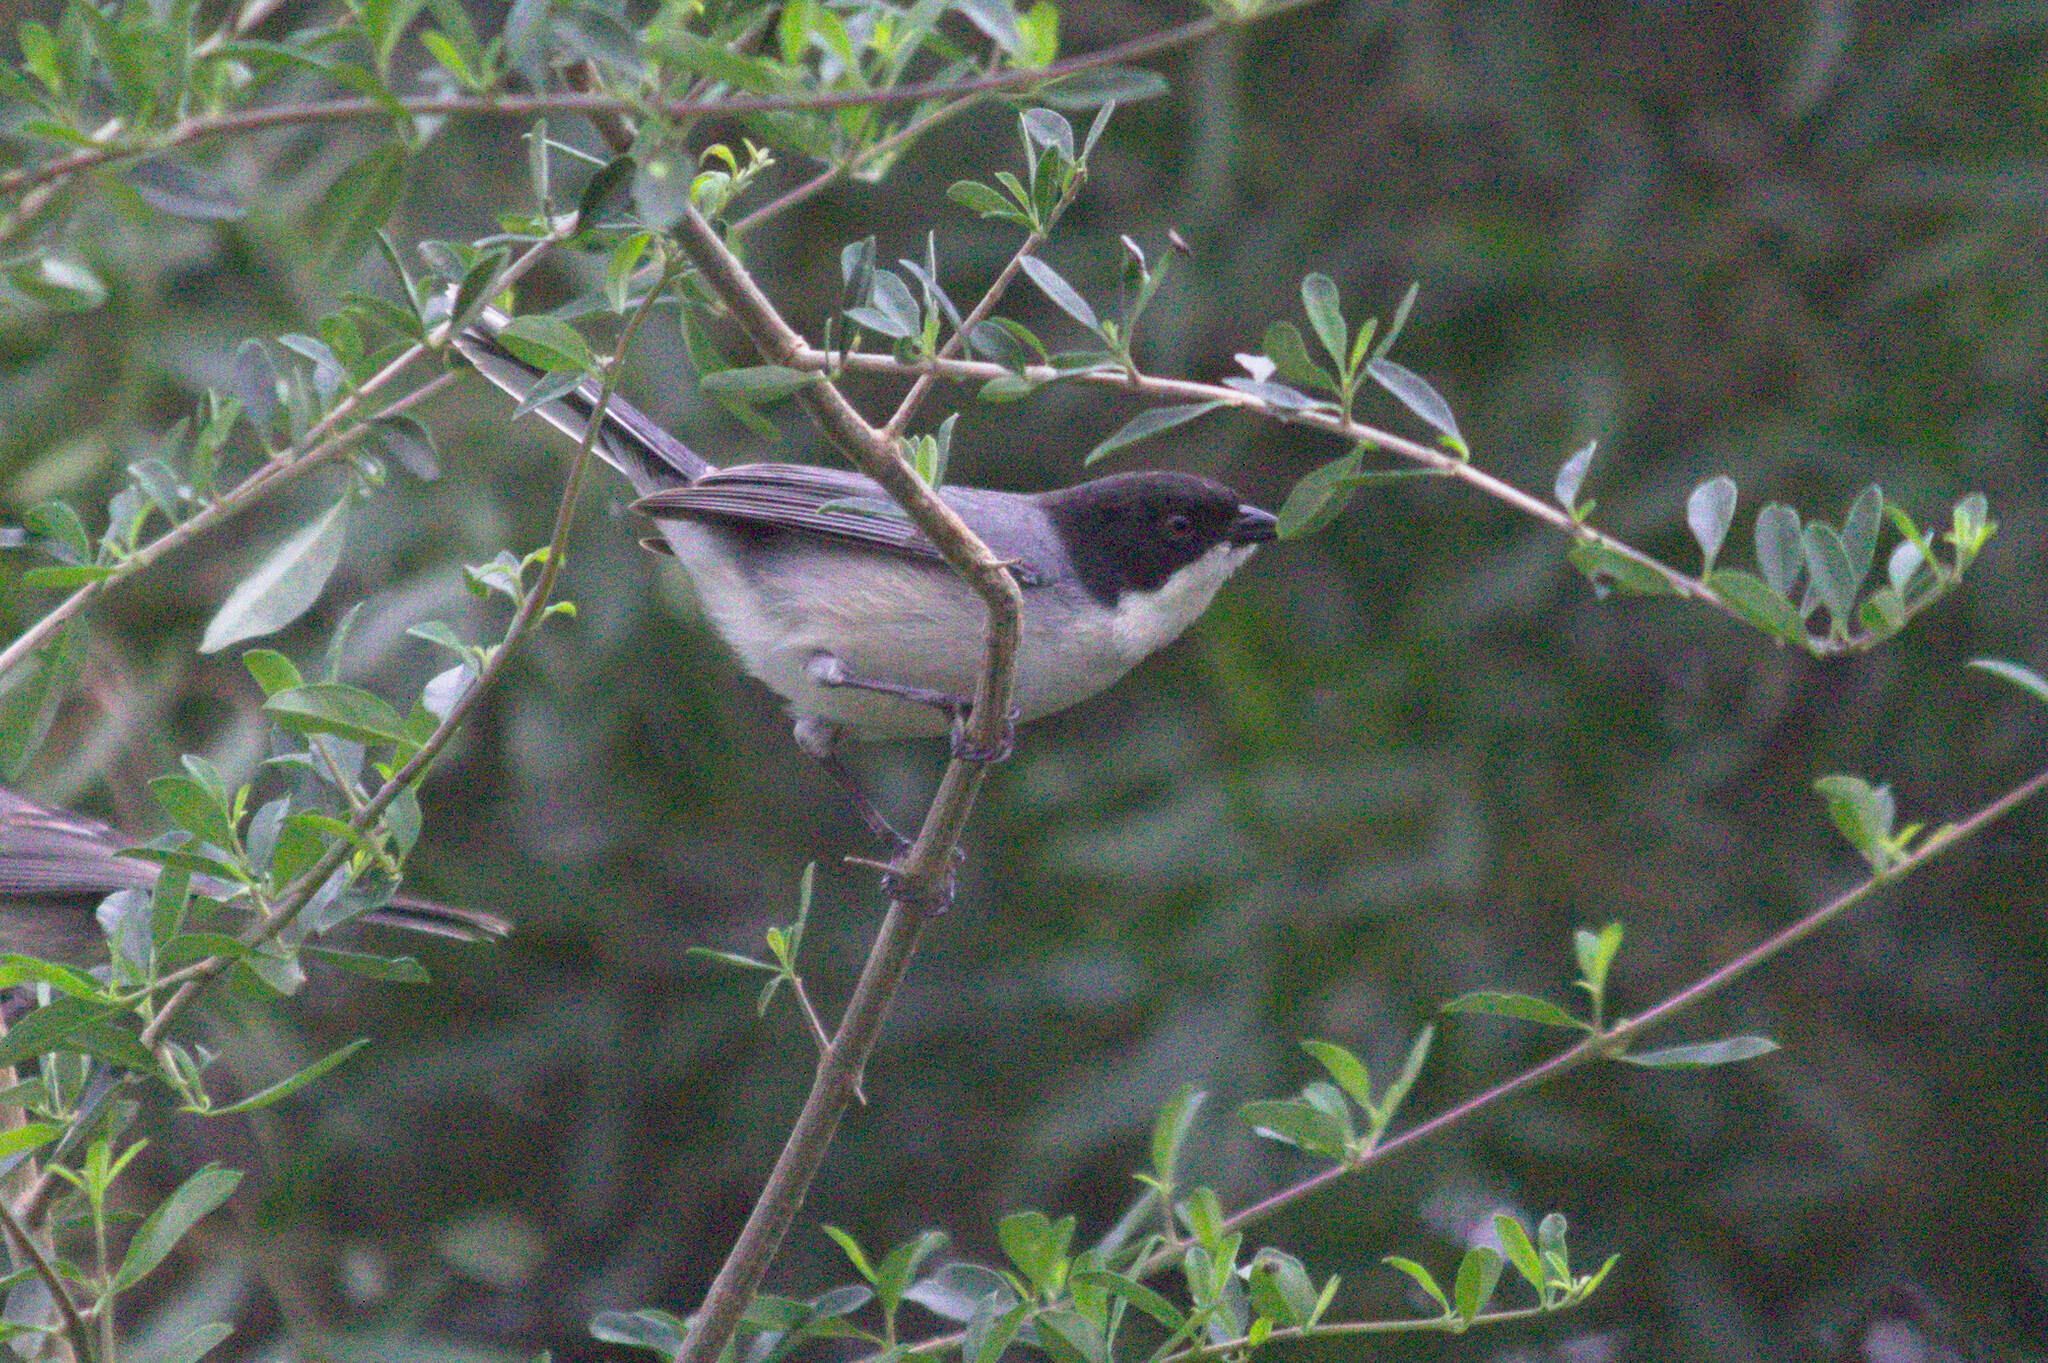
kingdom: Animalia
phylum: Chordata
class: Aves
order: Passeriformes
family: Thraupidae
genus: Microspingus
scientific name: Microspingus melanoleucus
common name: Black-capped warbling-finch
